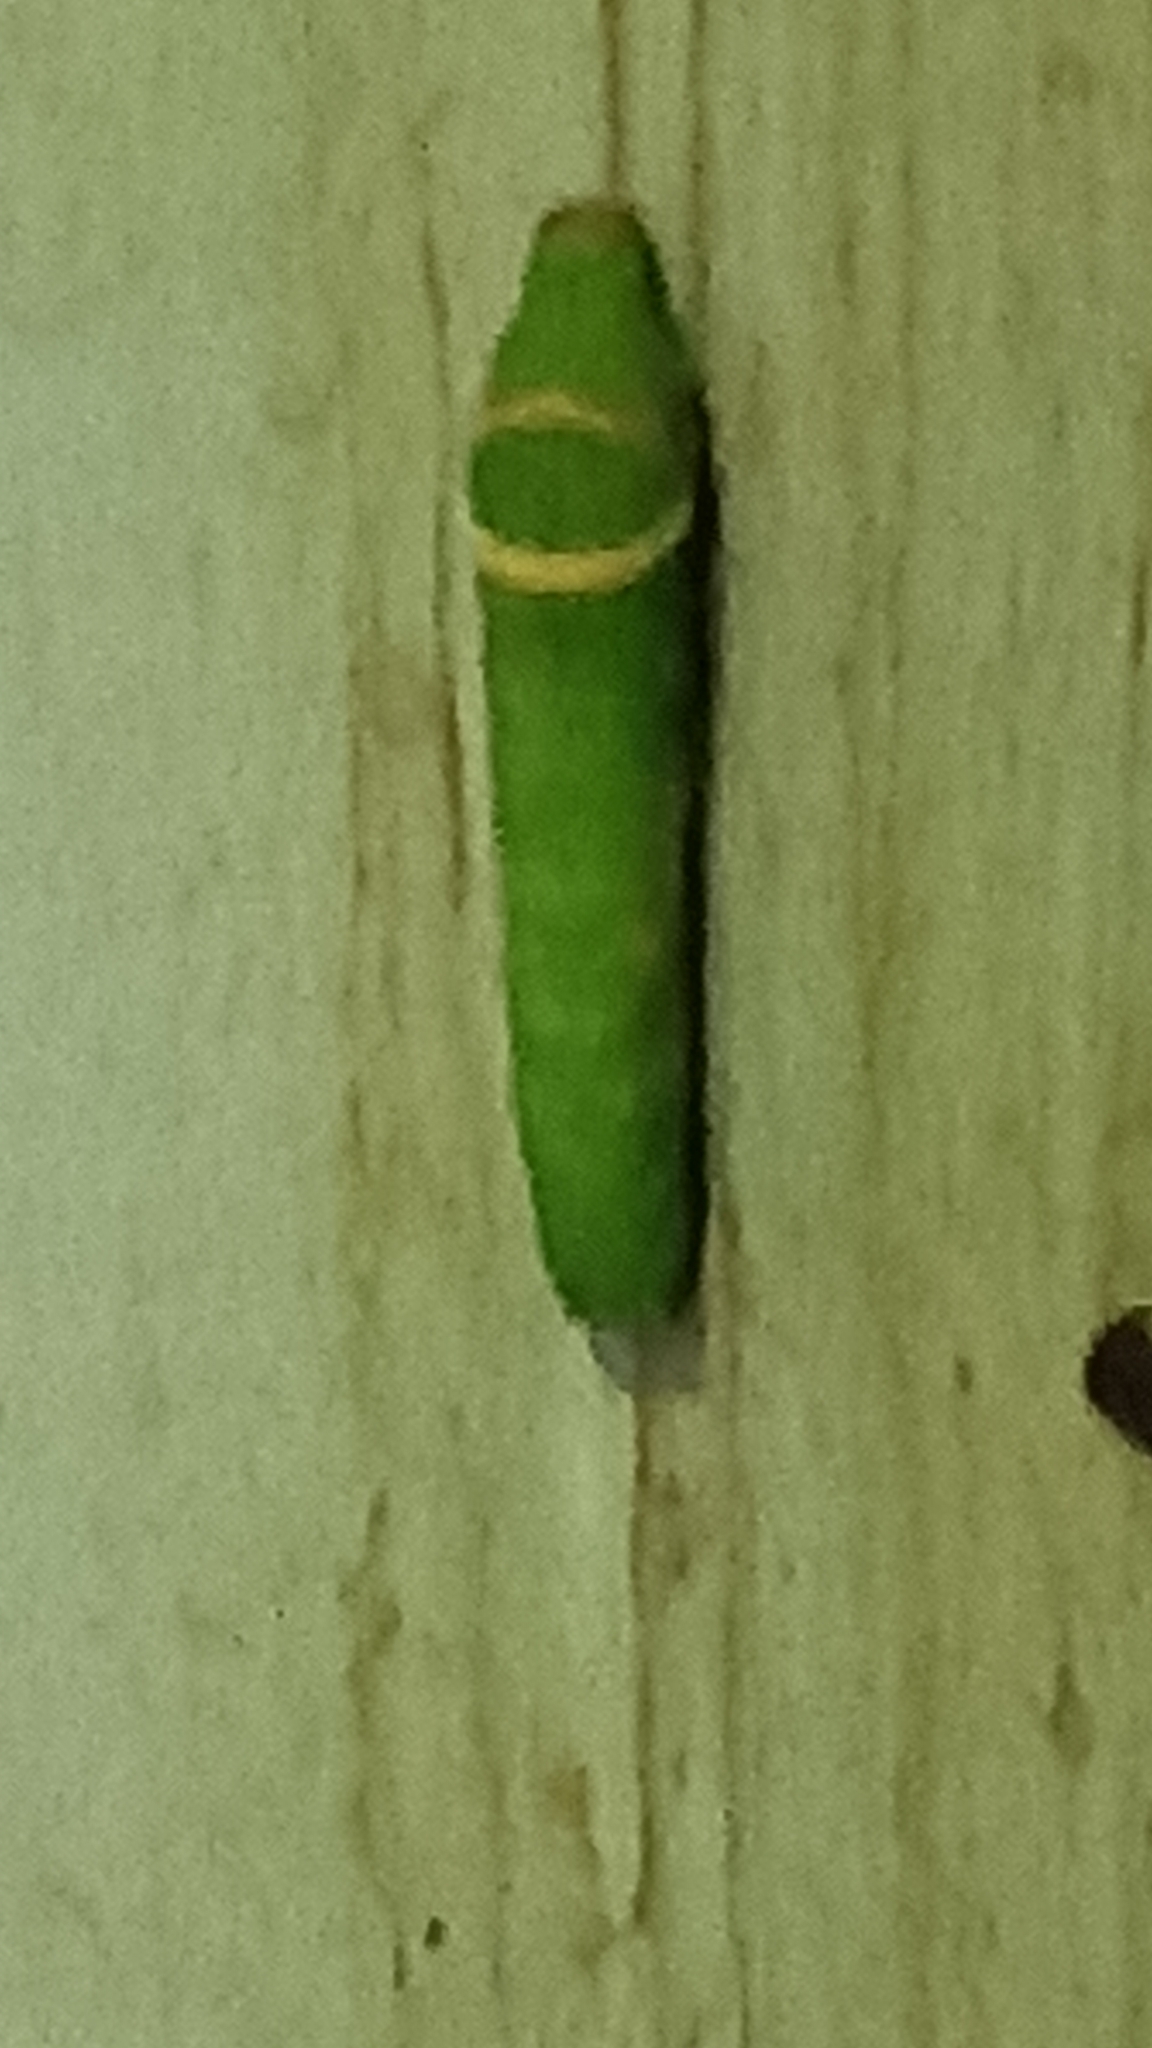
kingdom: Animalia
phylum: Arthropoda
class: Insecta
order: Lepidoptera
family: Papilionidae
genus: Papilio
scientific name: Papilio demoleus
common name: Lime butterfly
